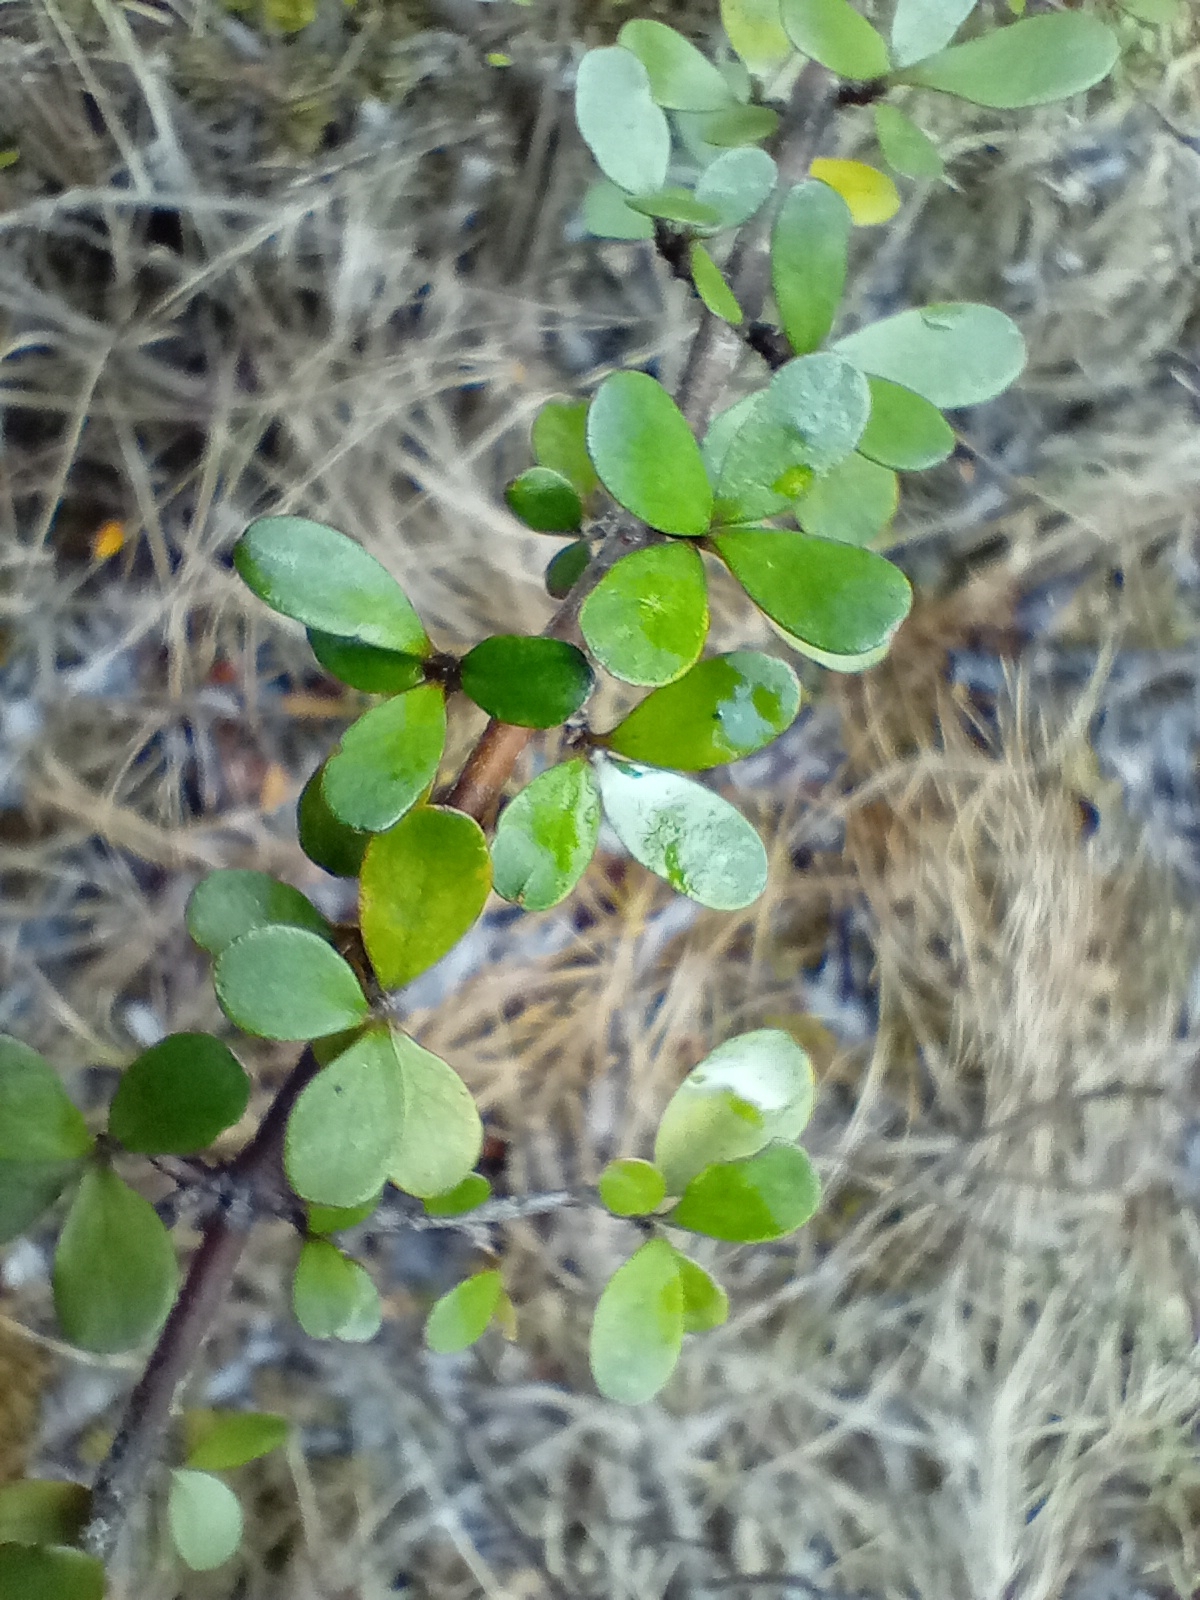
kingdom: Plantae
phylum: Tracheophyta
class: Magnoliopsida
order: Gentianales
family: Rubiaceae
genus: Coprosma
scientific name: Coprosma rigida
